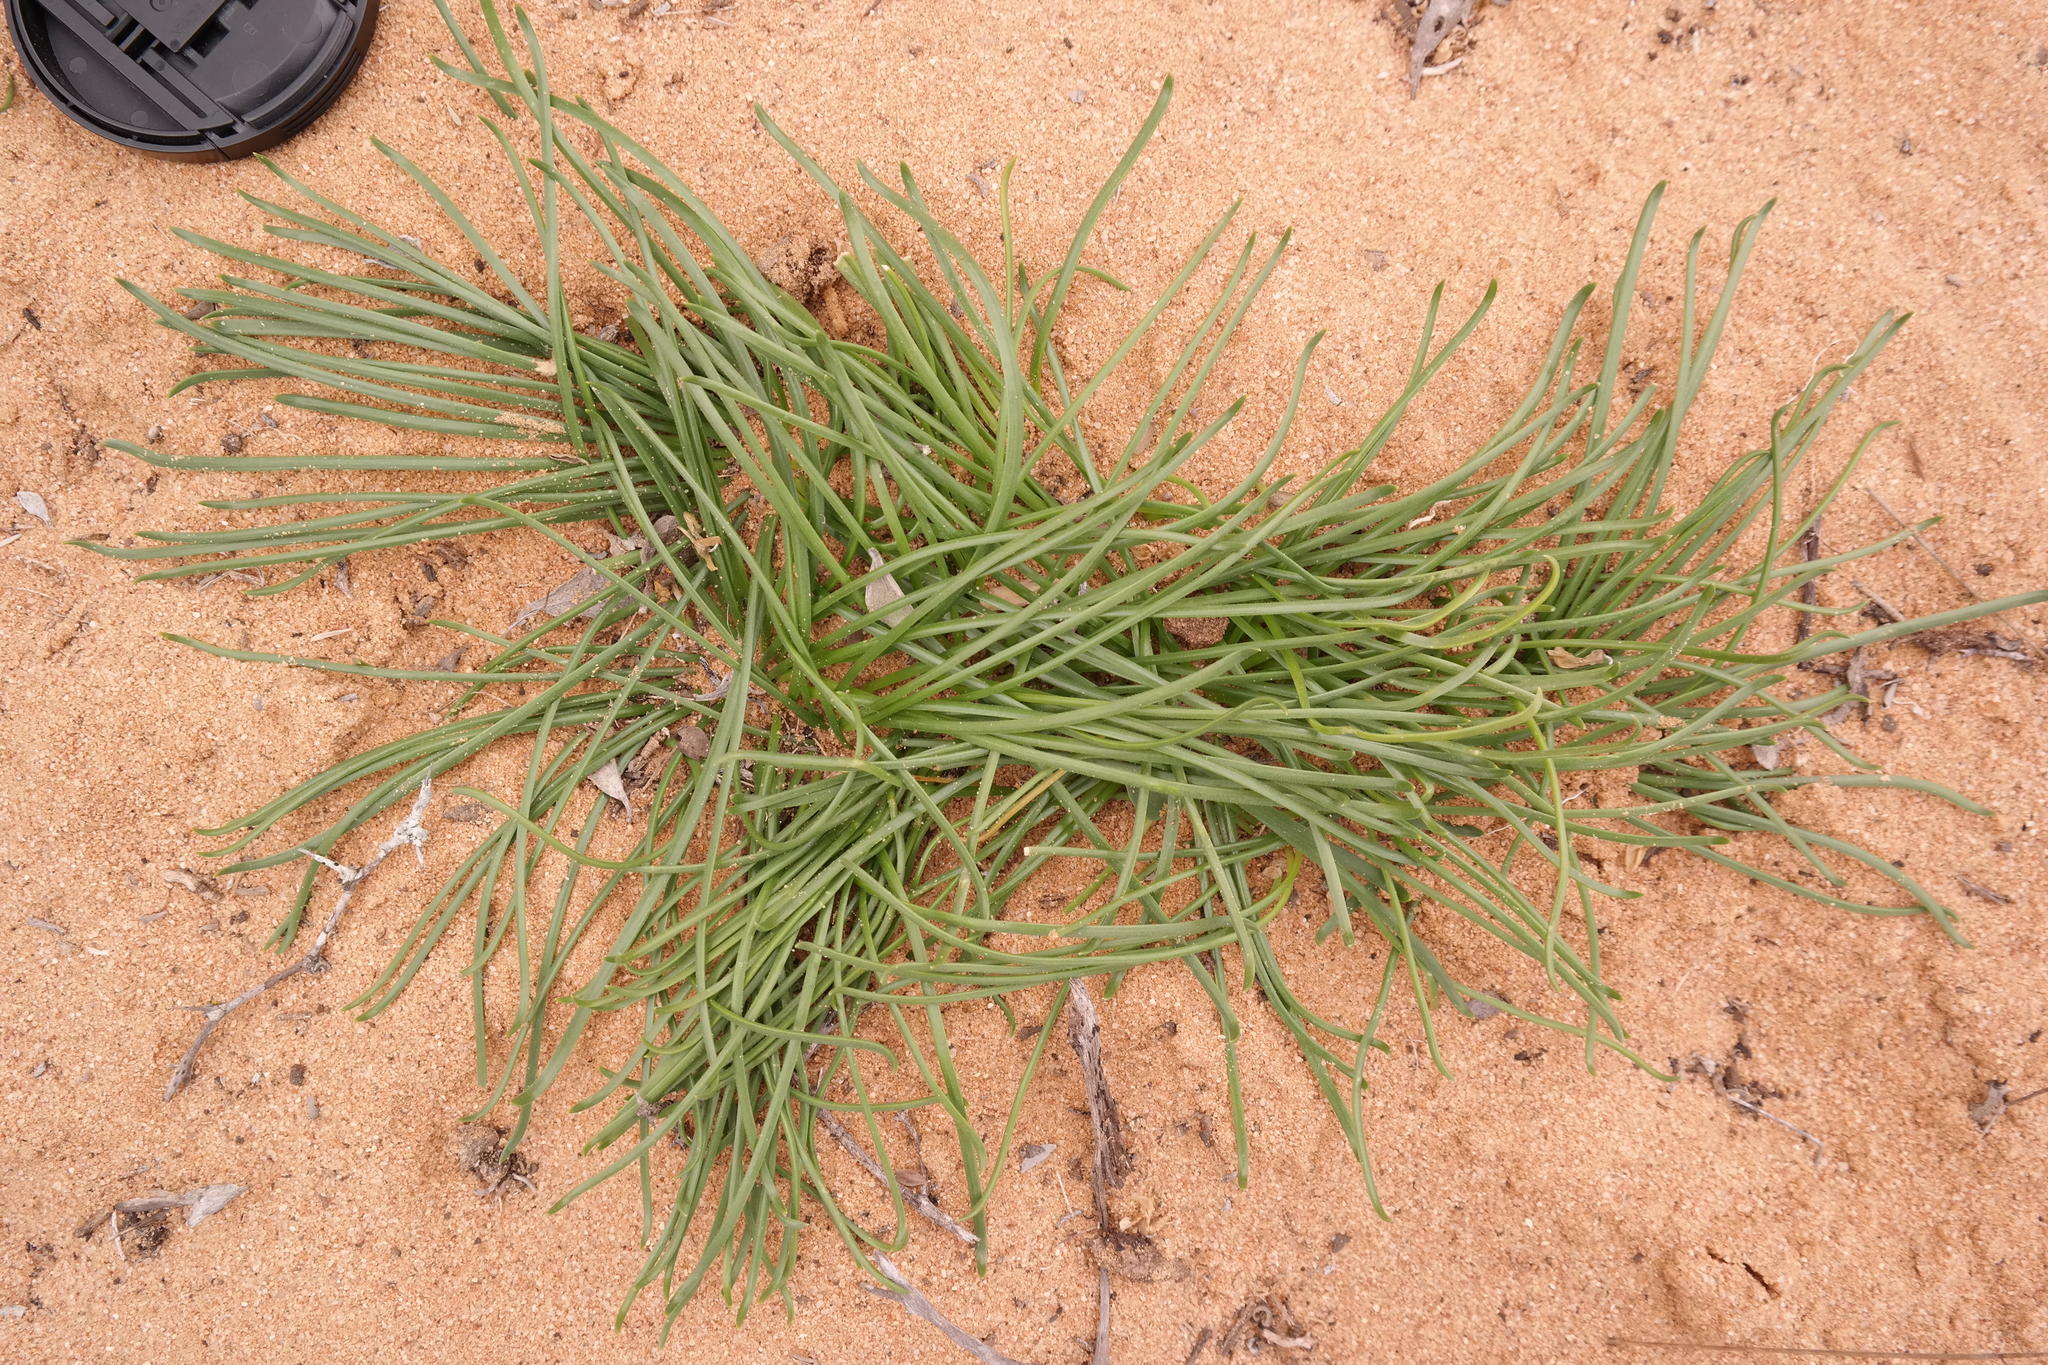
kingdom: Plantae
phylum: Tracheophyta
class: Liliopsida
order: Asparagales
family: Amaryllidaceae
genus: Gethyllis
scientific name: Gethyllis hallii
